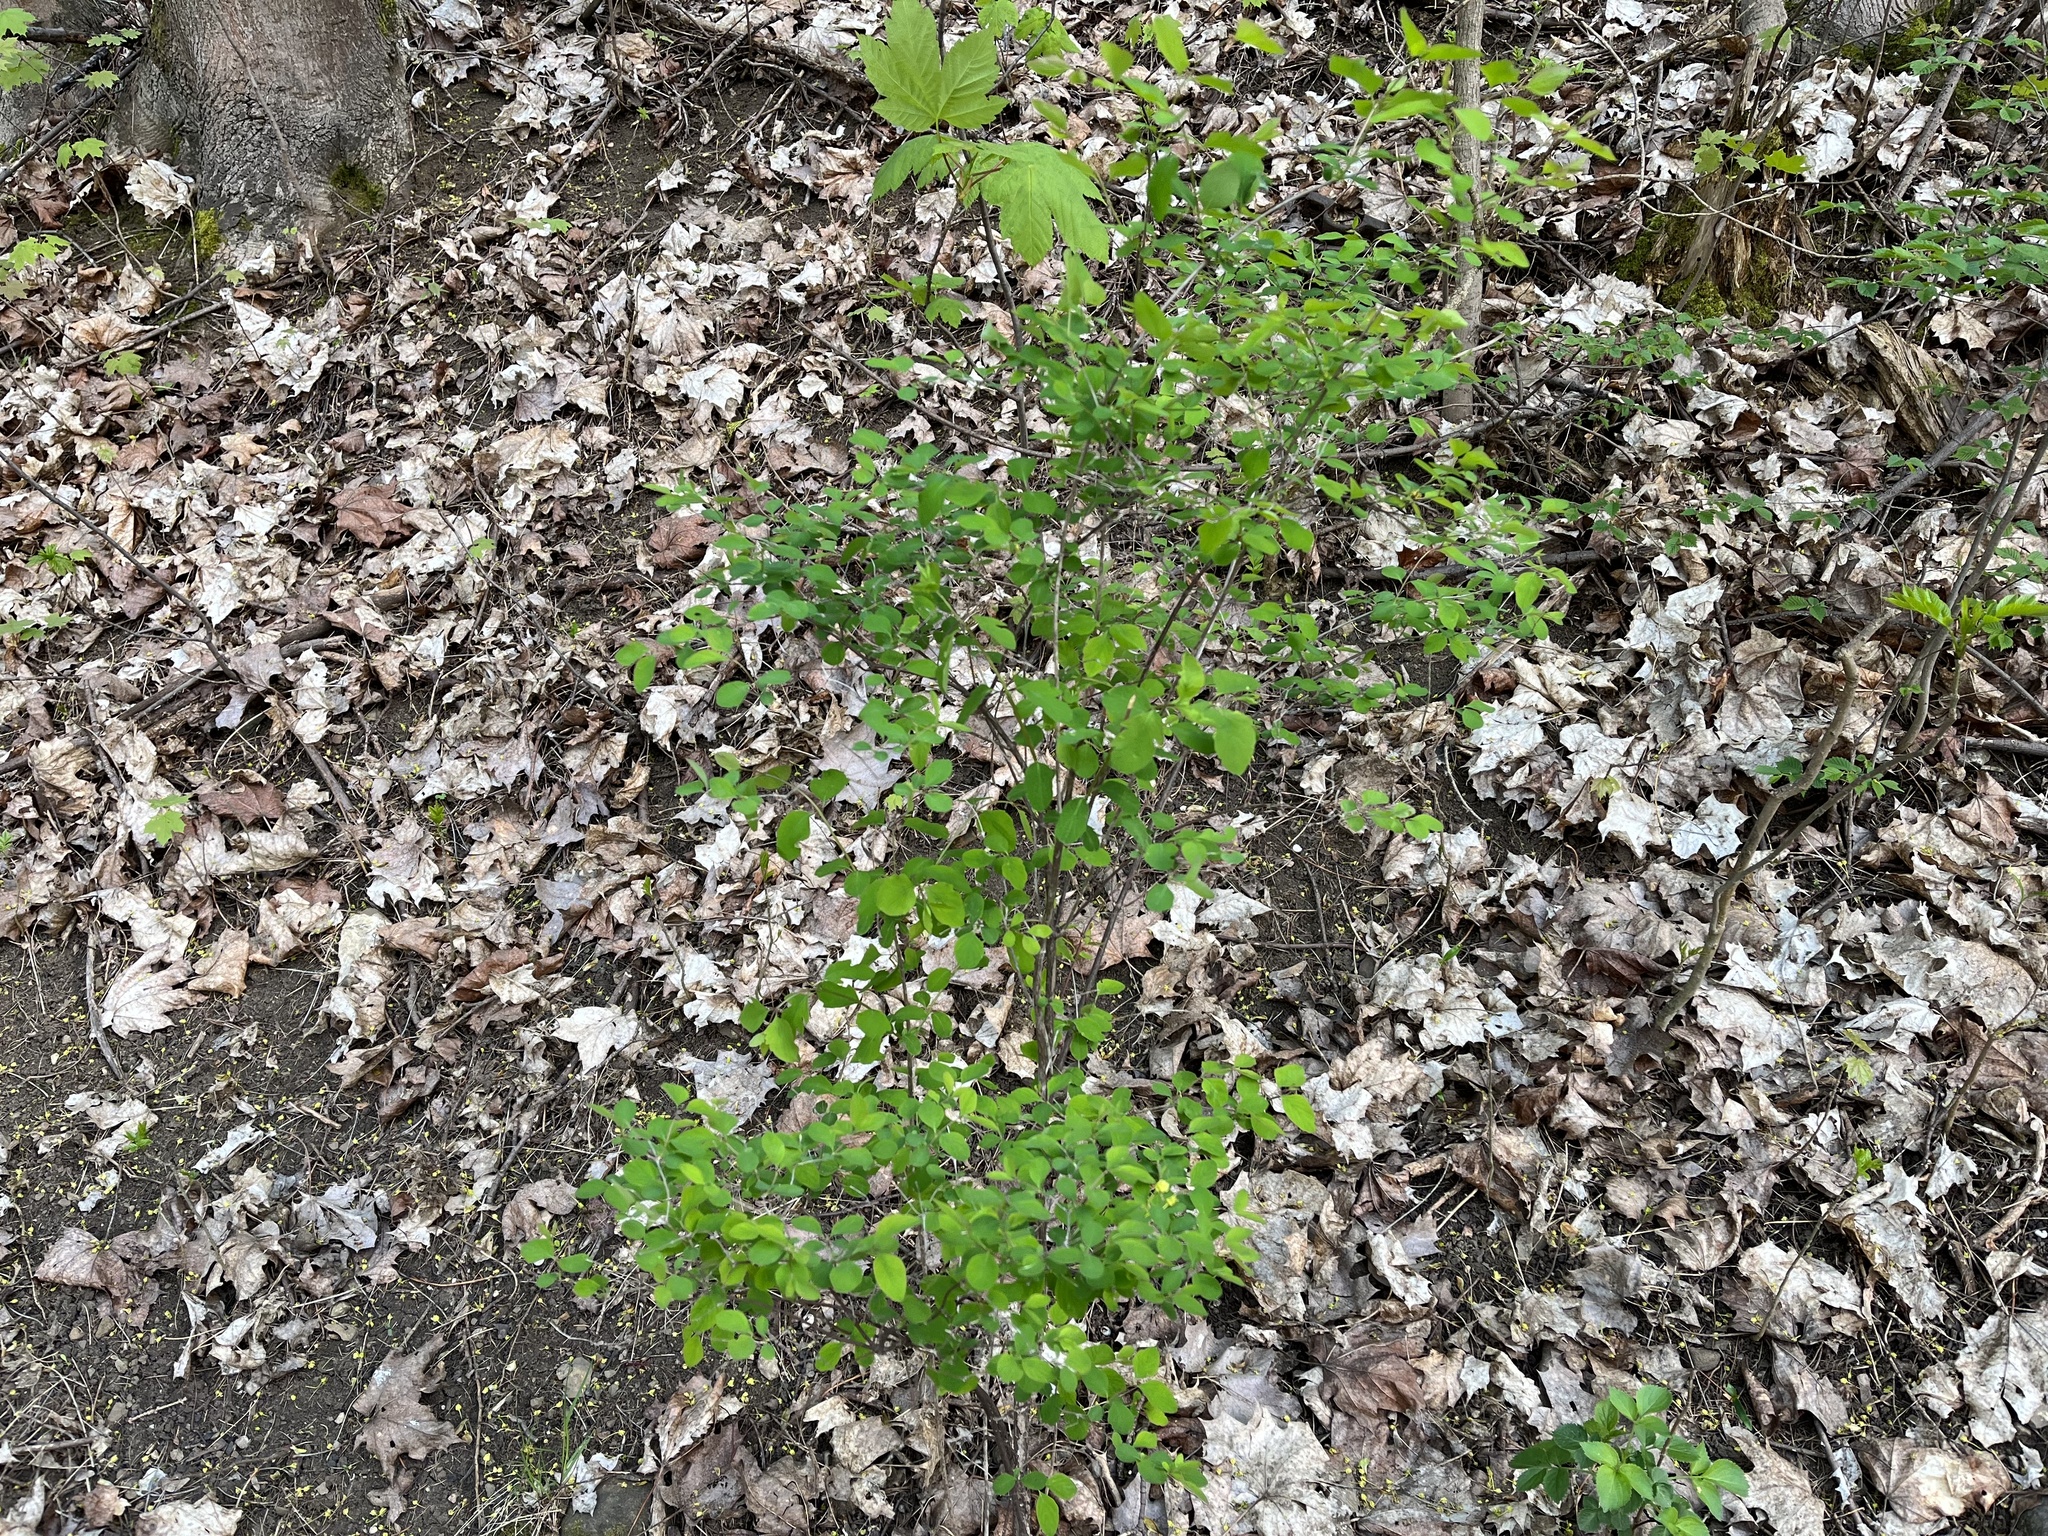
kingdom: Plantae
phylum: Tracheophyta
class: Magnoliopsida
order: Dipsacales
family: Caprifoliaceae
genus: Symphoricarpos
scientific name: Symphoricarpos albus
